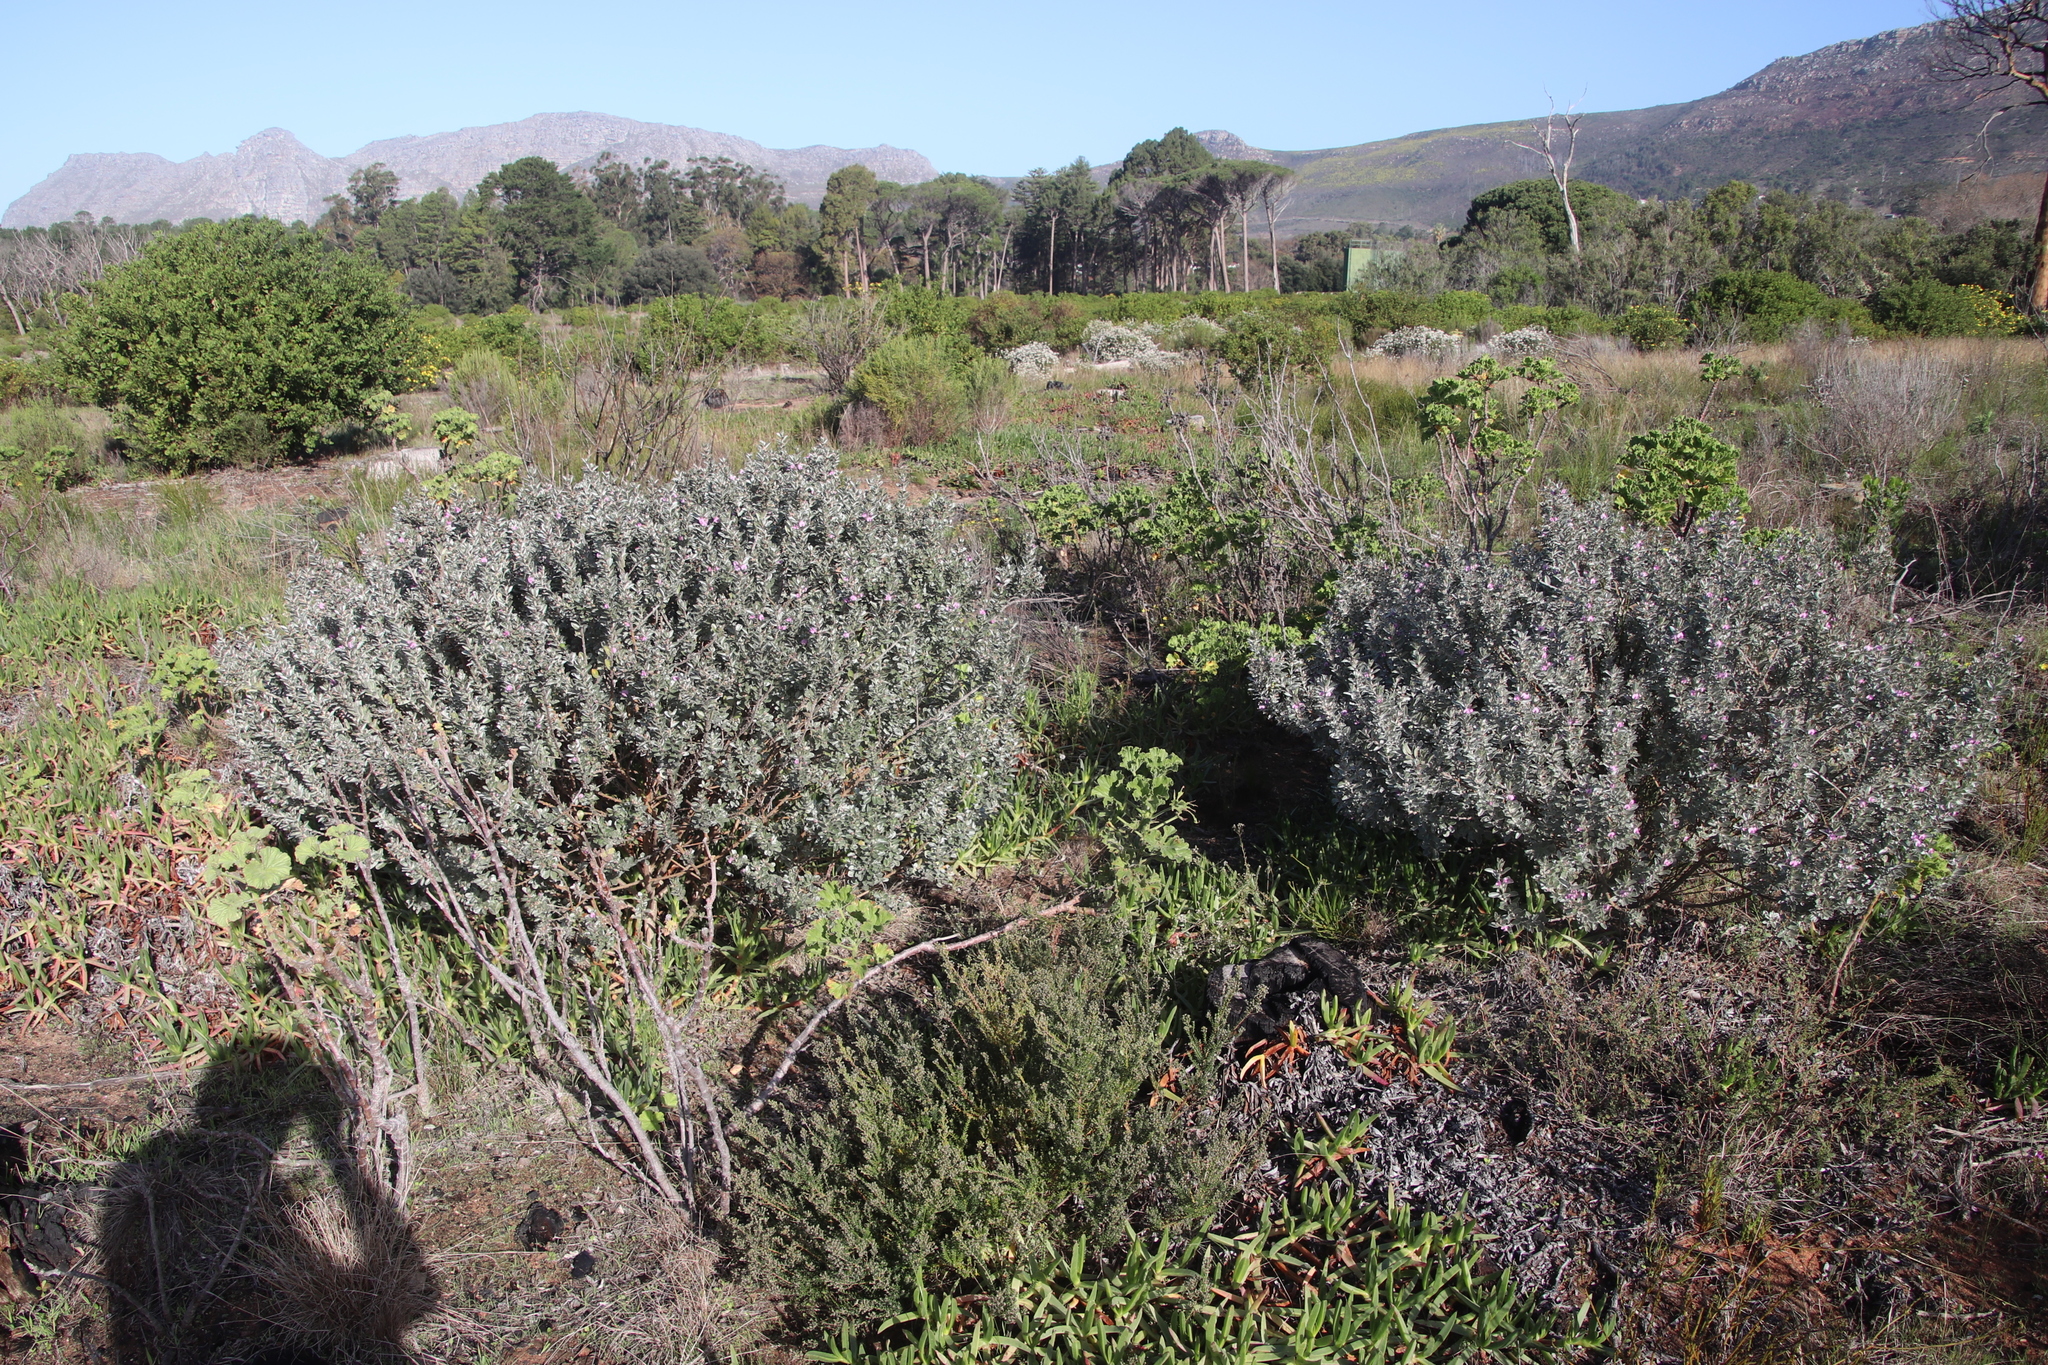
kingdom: Plantae
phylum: Tracheophyta
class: Magnoliopsida
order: Fabales
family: Fabaceae
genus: Podalyria
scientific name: Podalyria sericea
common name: Silver podalyria
